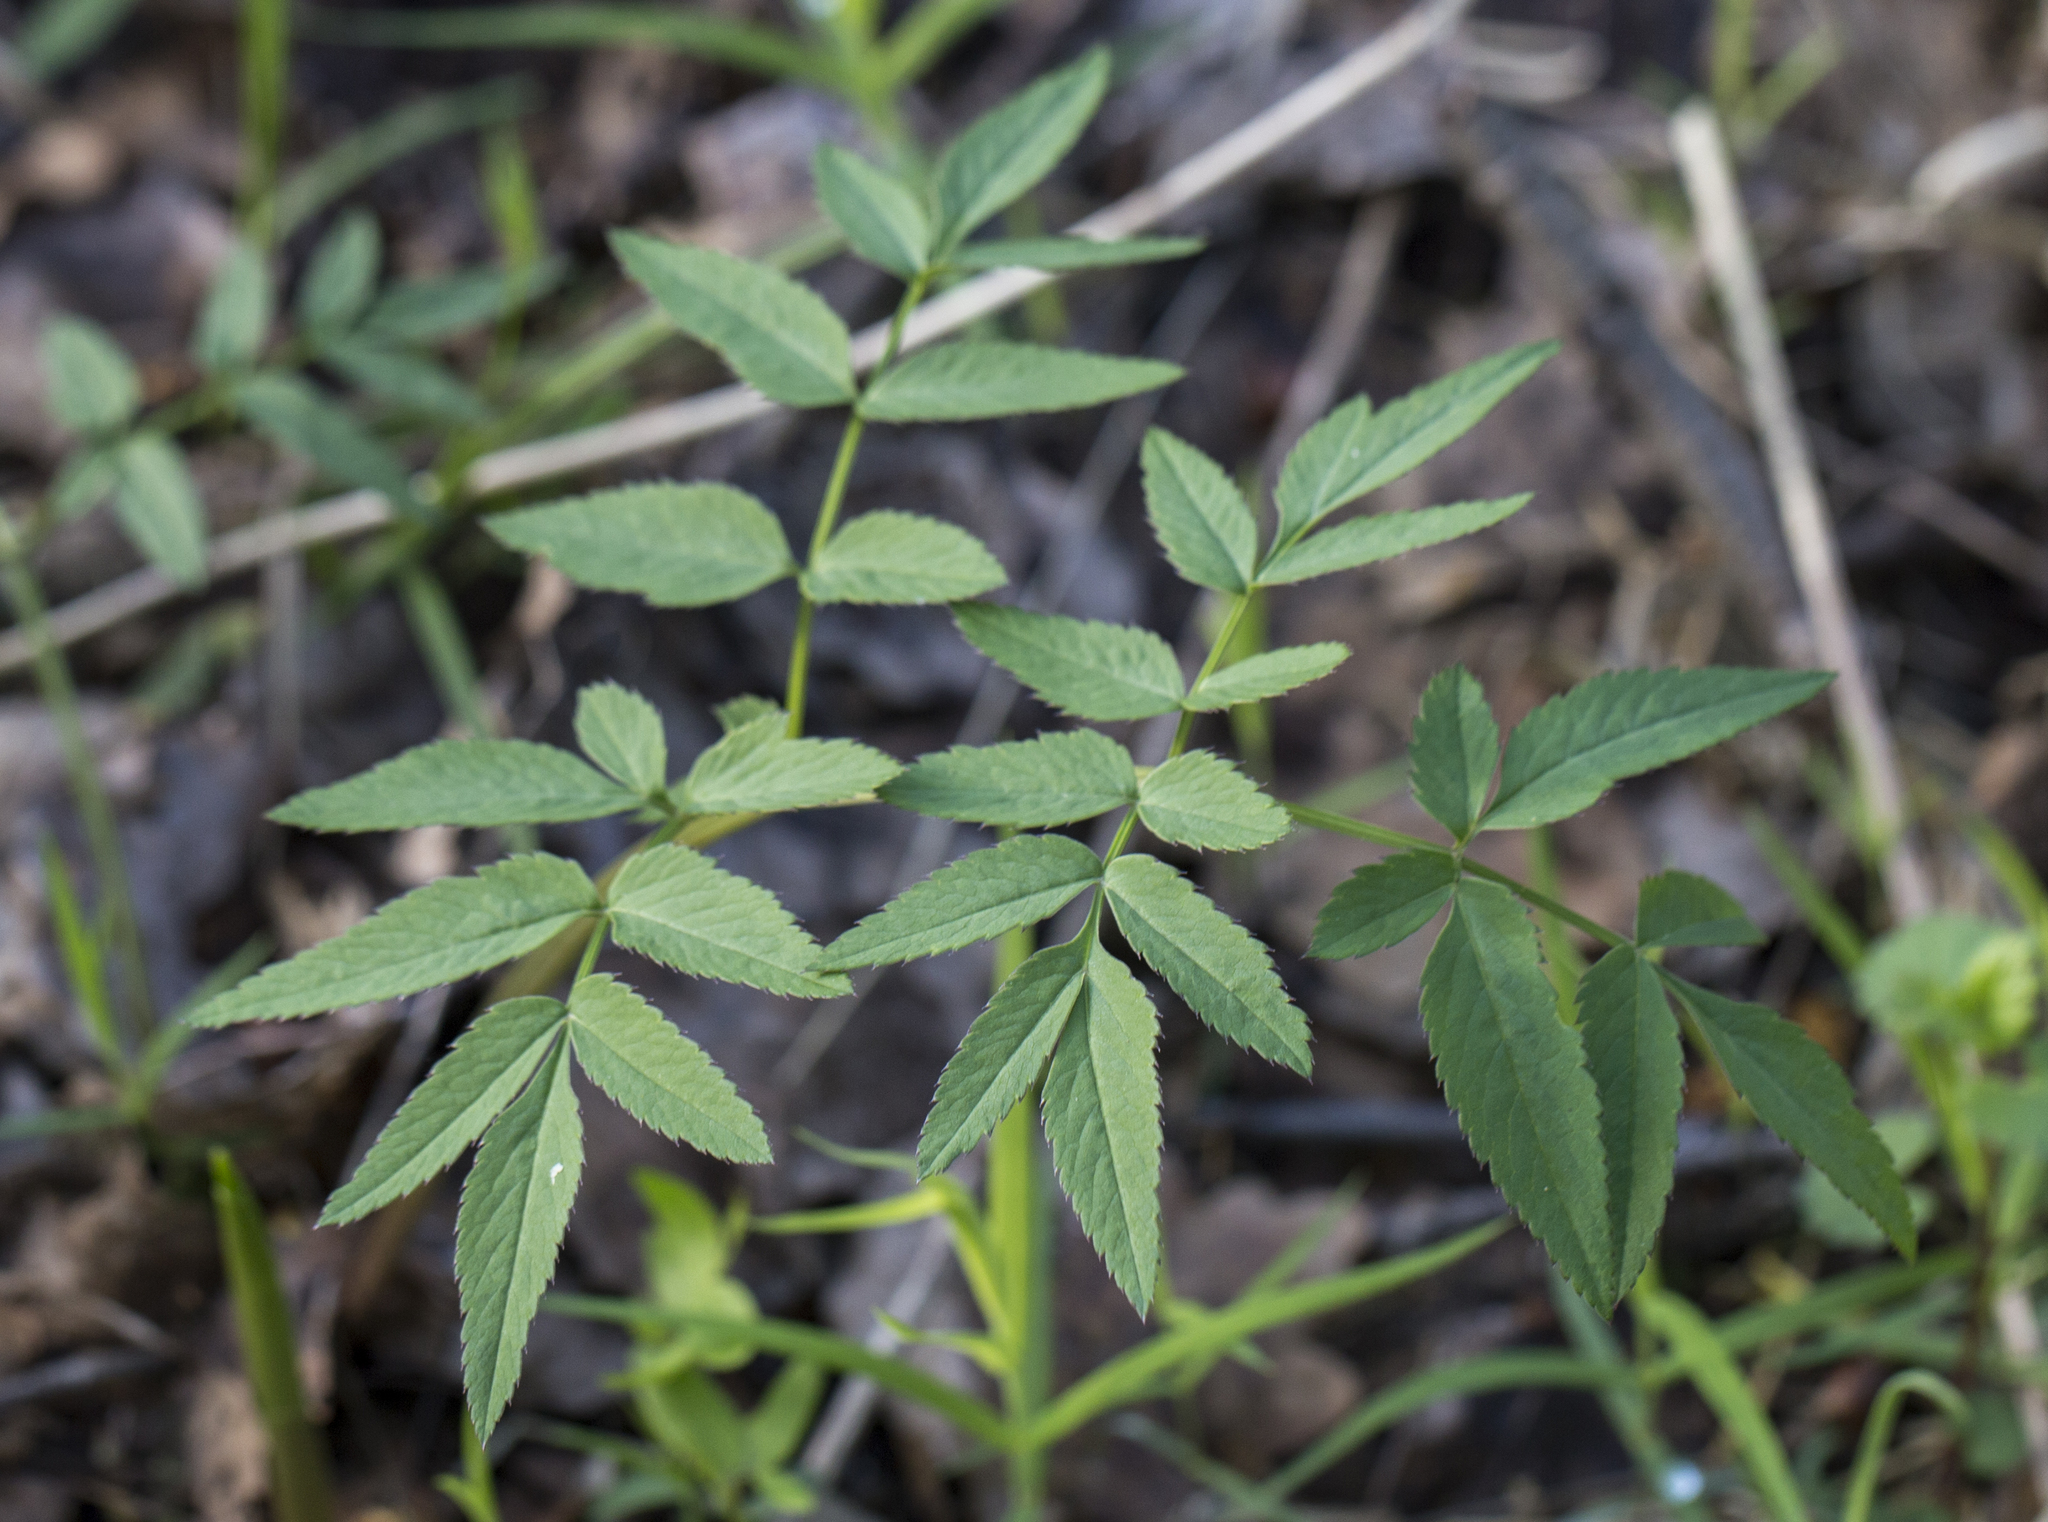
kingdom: Plantae
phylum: Tracheophyta
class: Magnoliopsida
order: Apiales
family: Apiaceae
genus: Angelica
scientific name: Angelica sylvestris
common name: Wild angelica
